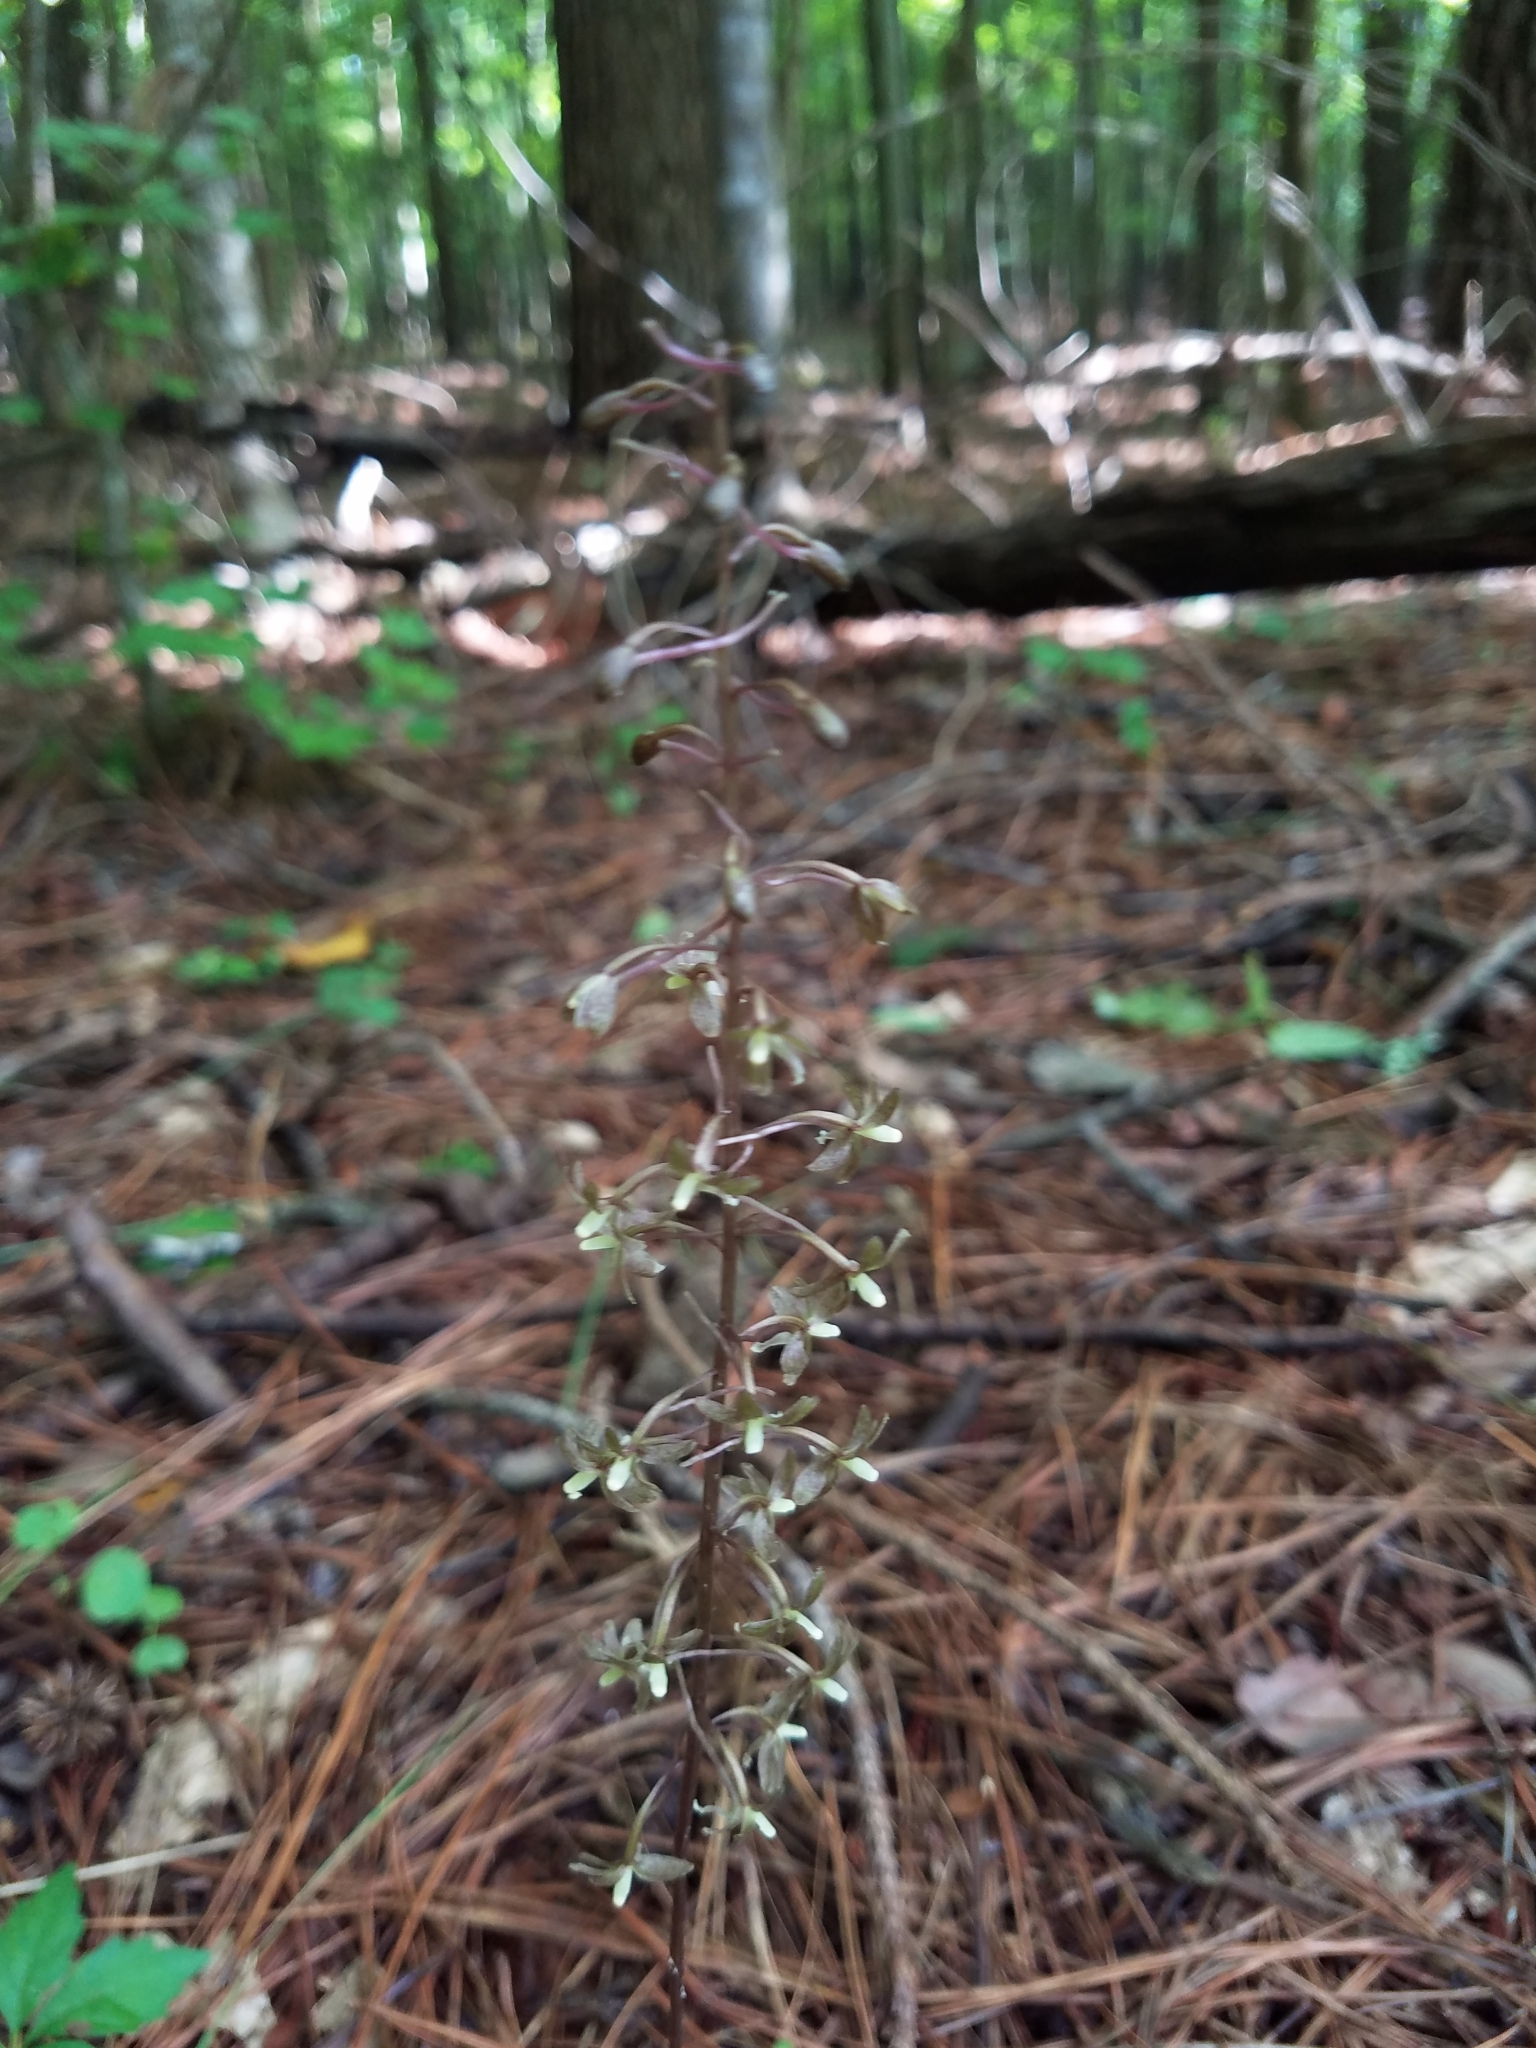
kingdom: Plantae
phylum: Tracheophyta
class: Liliopsida
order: Asparagales
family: Orchidaceae
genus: Tipularia
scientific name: Tipularia discolor
